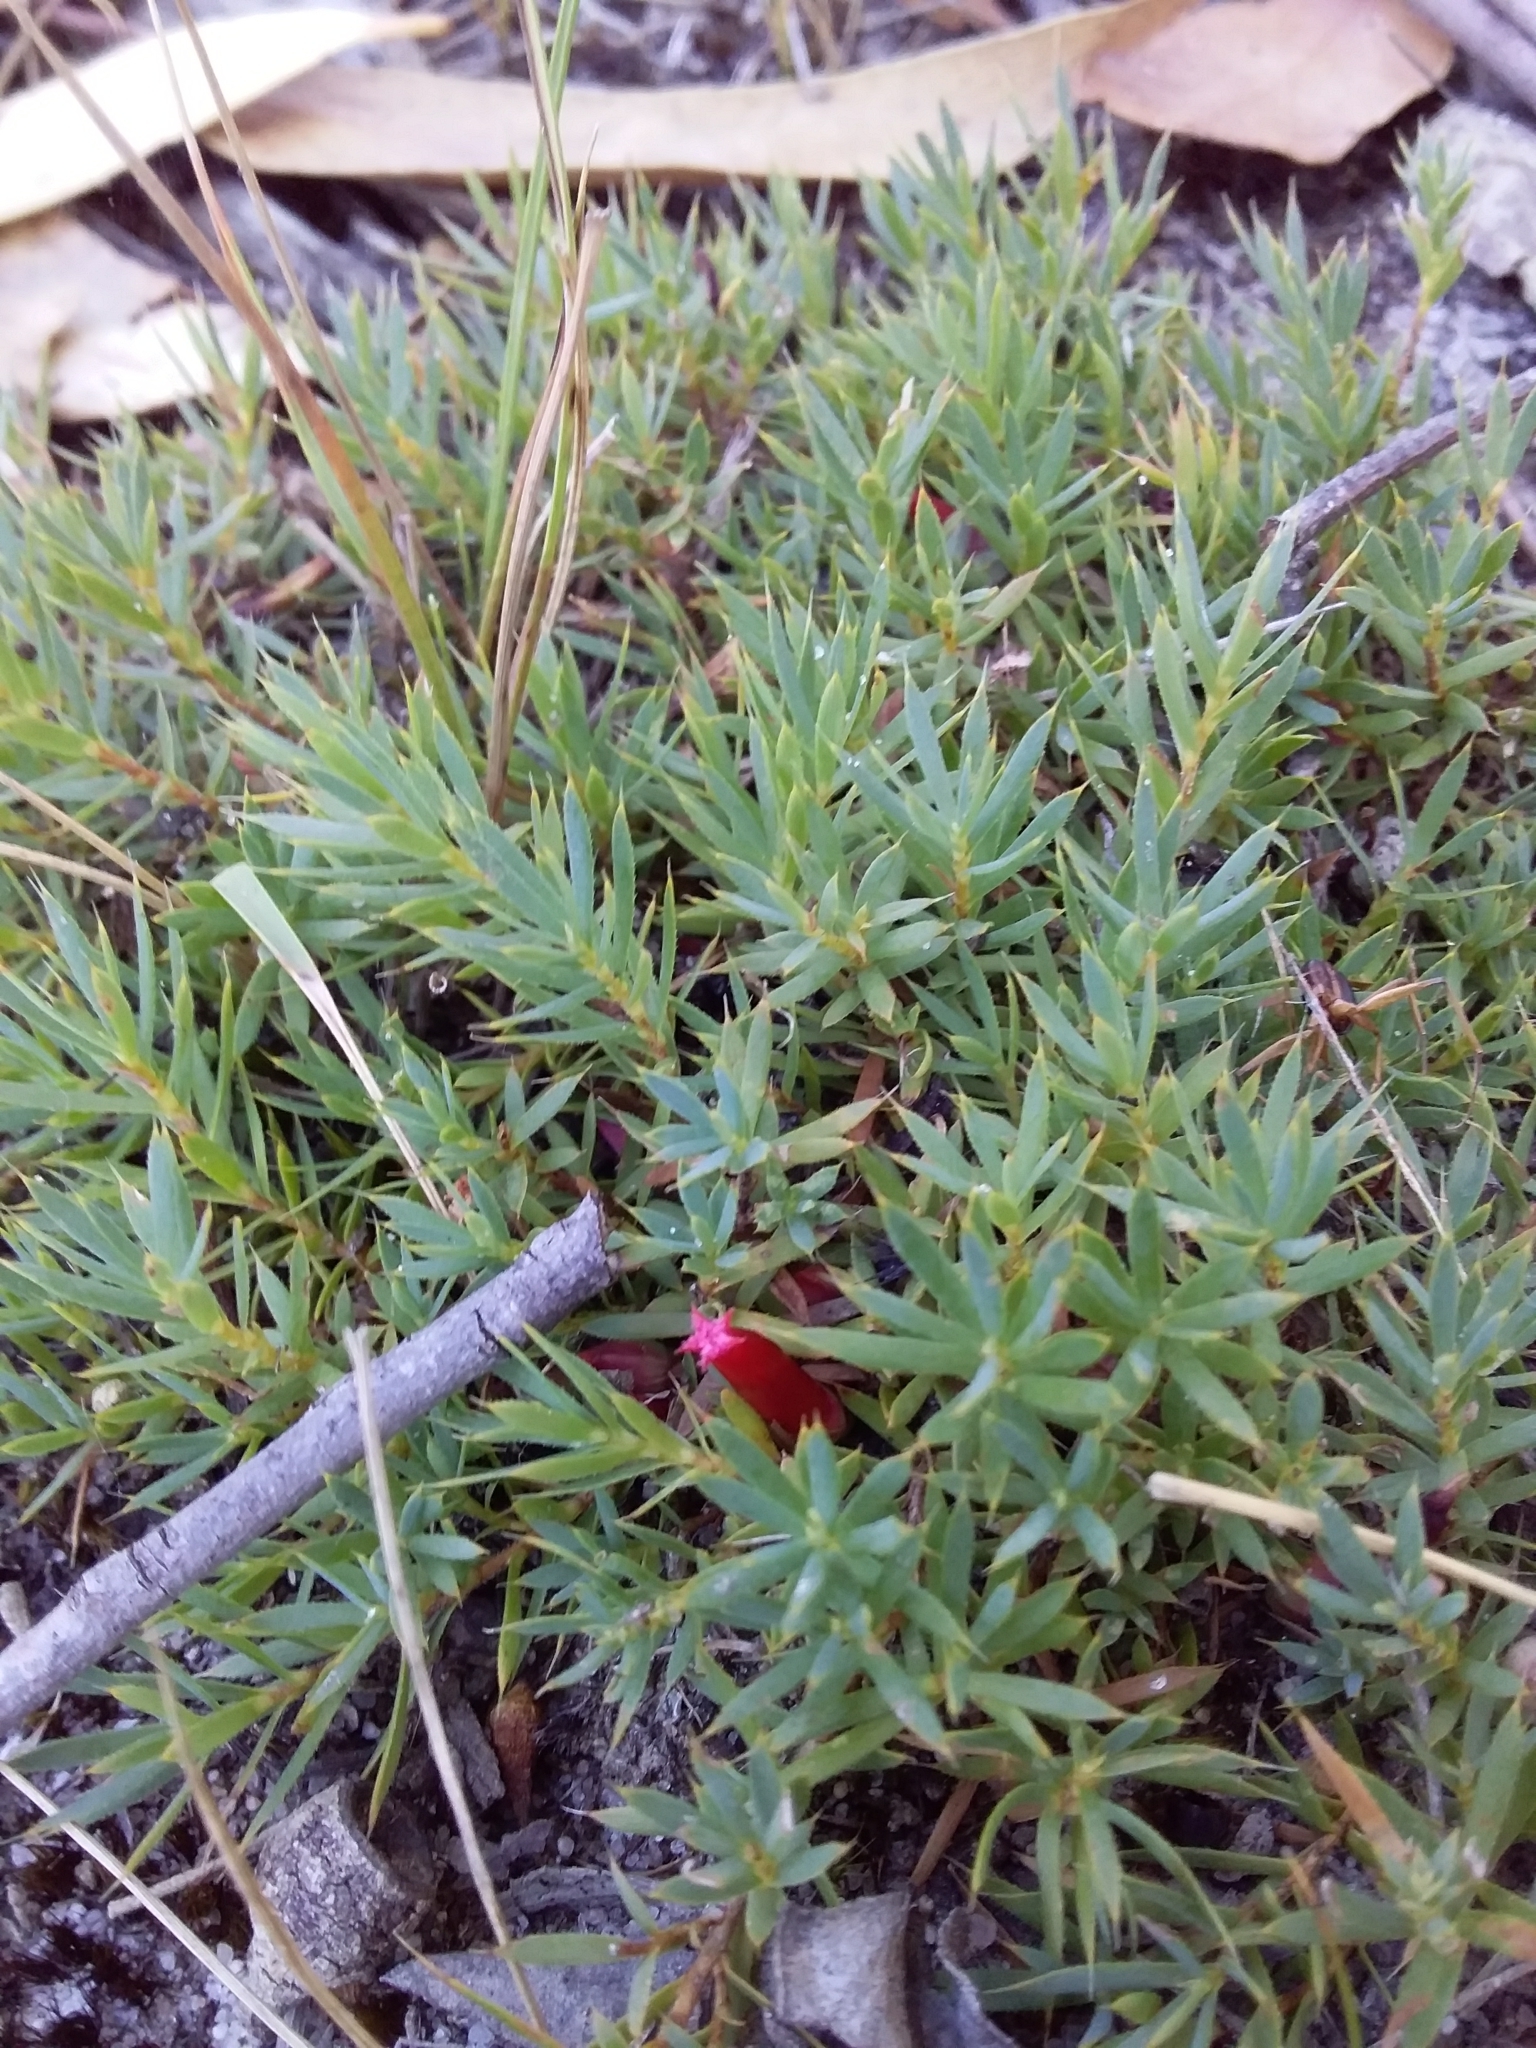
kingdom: Plantae
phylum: Tracheophyta
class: Magnoliopsida
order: Ericales
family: Ericaceae
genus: Styphelia
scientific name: Styphelia humifusa
